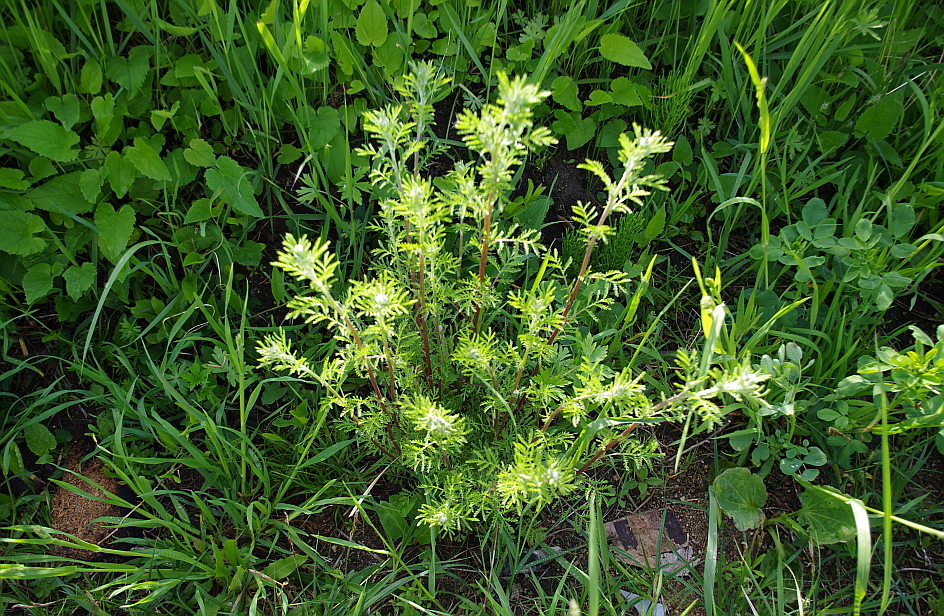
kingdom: Plantae
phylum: Tracheophyta
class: Magnoliopsida
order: Asterales
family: Asteraceae
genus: Cota
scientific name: Cota tinctoria
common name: Golden chamomile
